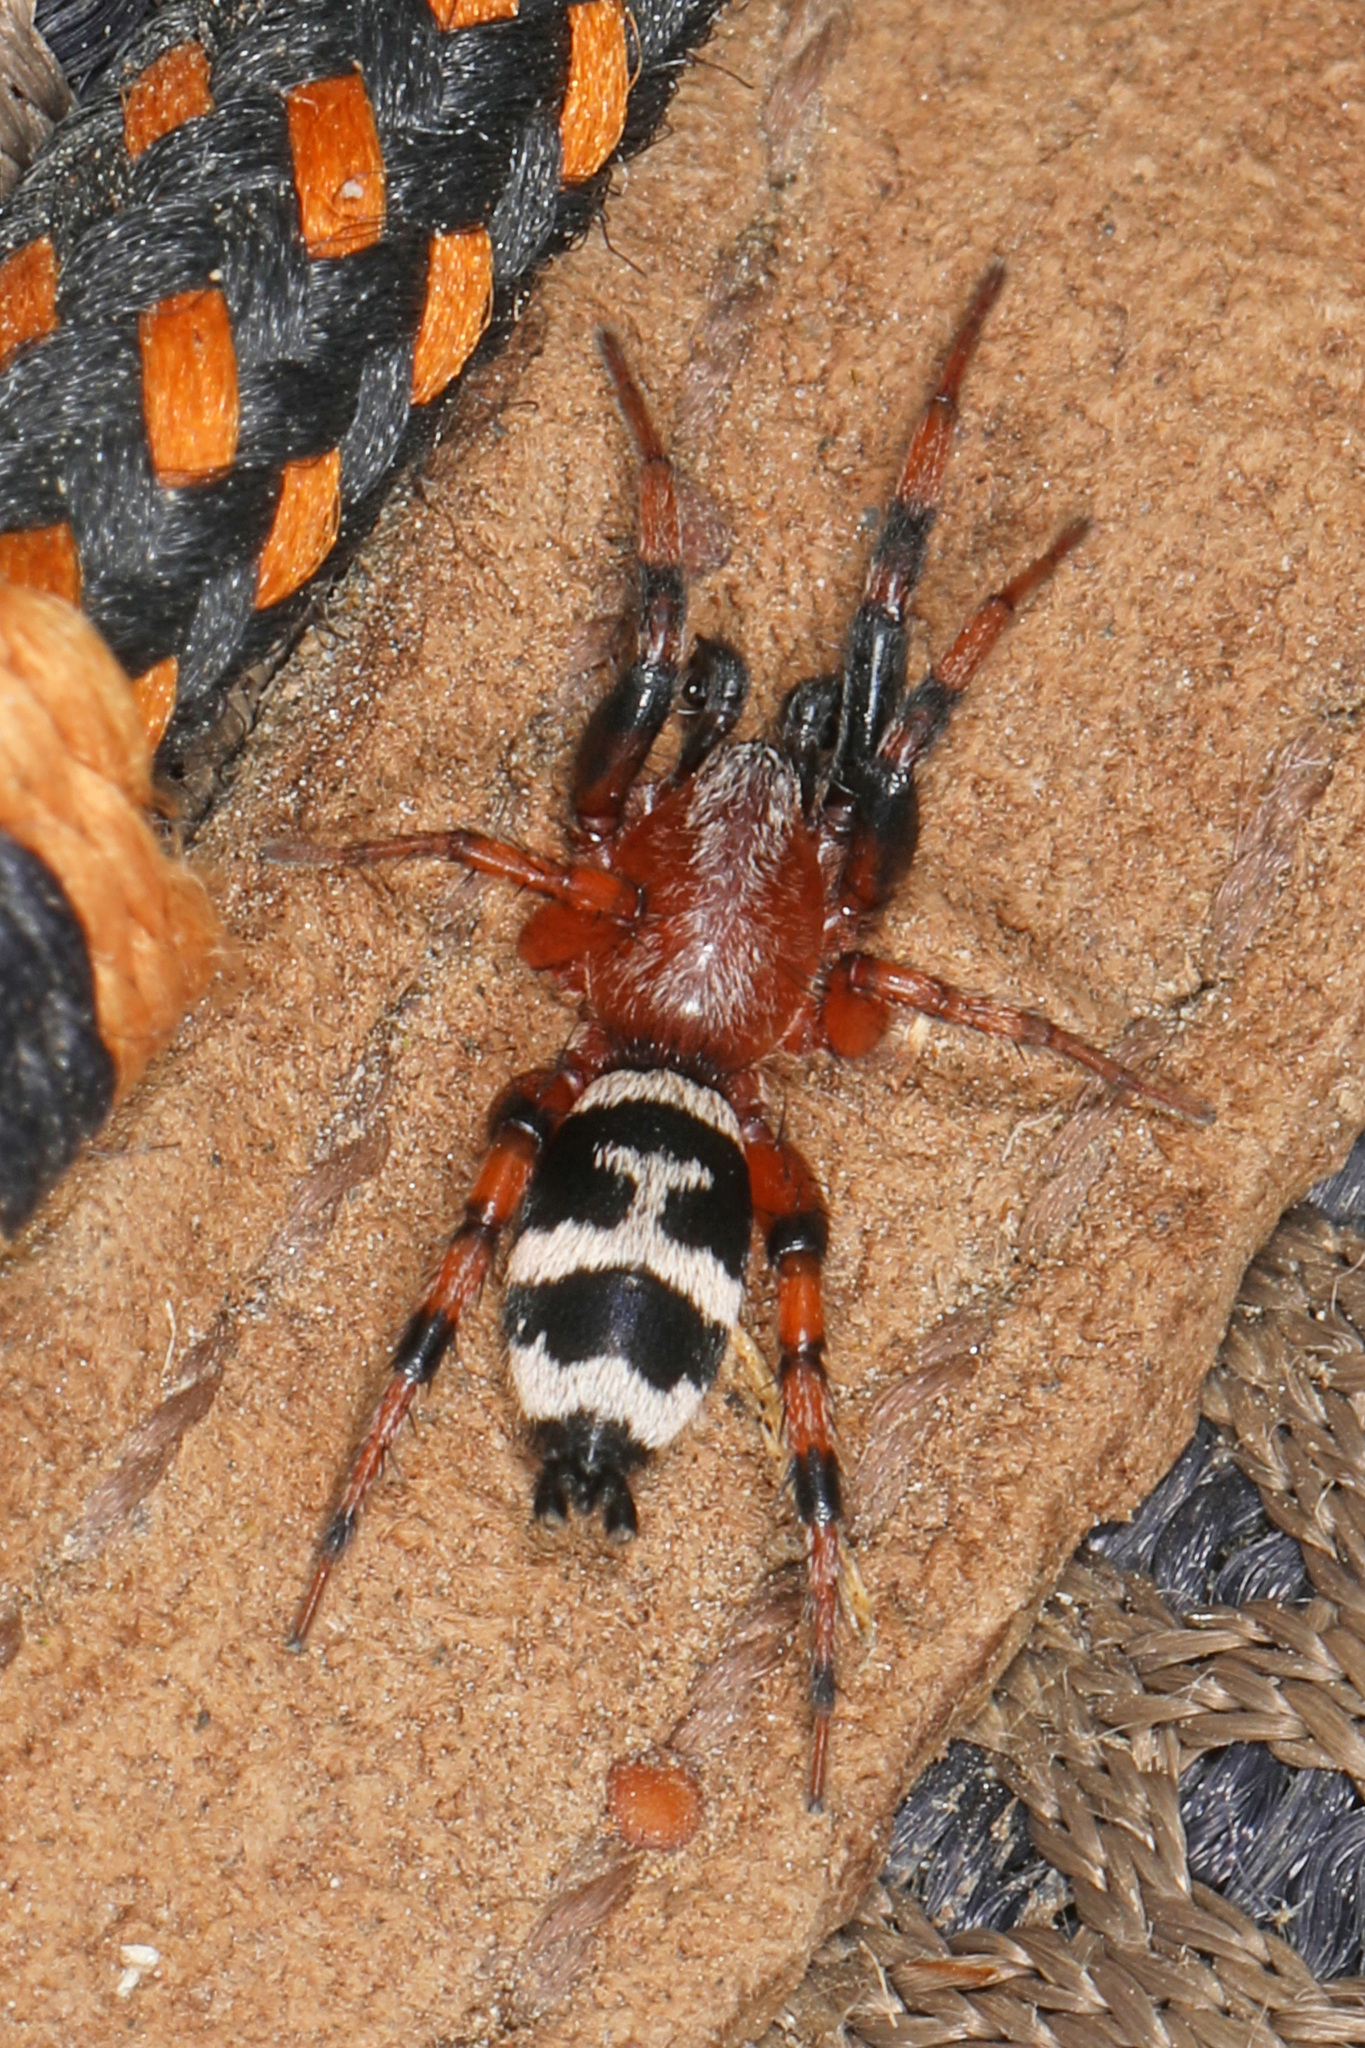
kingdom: Animalia
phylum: Arthropoda
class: Arachnida
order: Araneae
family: Gnaphosidae
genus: Sergiolus
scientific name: Sergiolus capulatus
